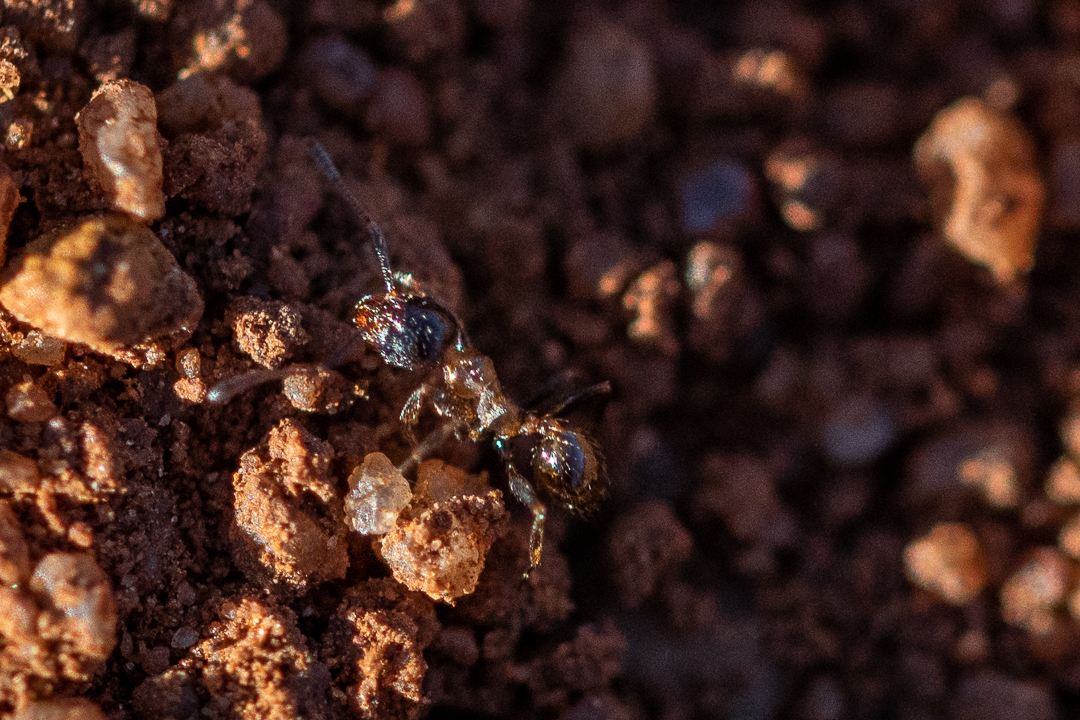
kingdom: Animalia
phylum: Arthropoda
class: Insecta
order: Hymenoptera
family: Formicidae
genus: Pheidole
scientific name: Pheidole tenuinodis
